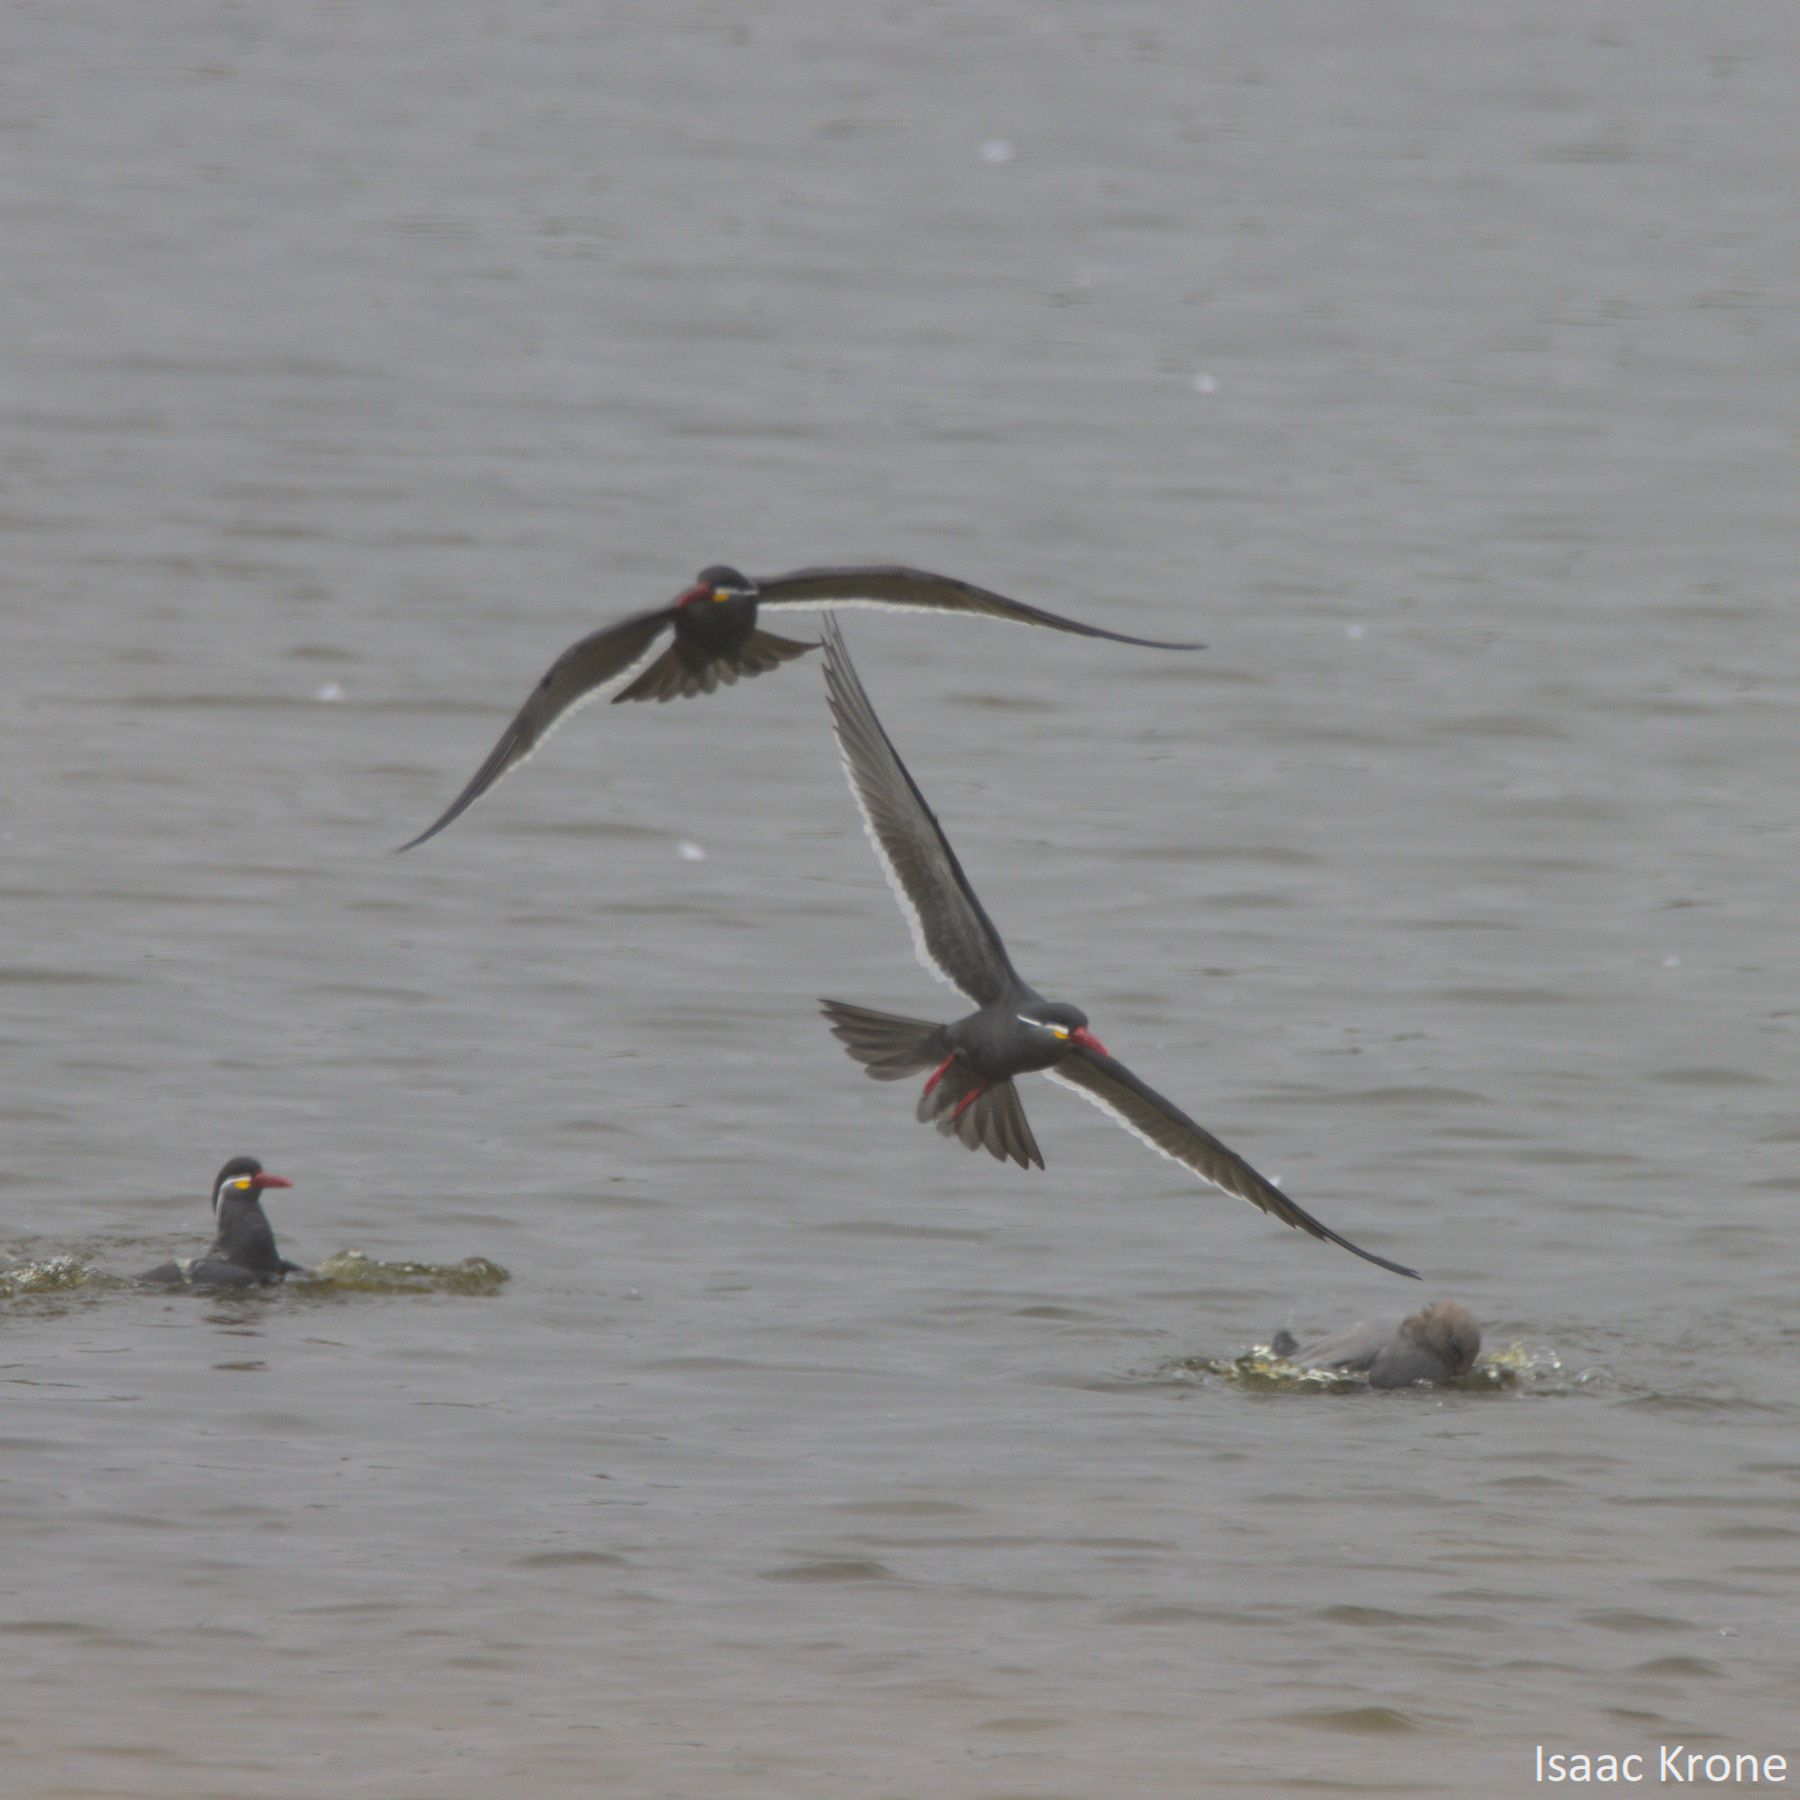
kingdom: Animalia
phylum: Chordata
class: Aves
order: Charadriiformes
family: Laridae
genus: Larosterna
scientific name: Larosterna inca
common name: Inca tern
